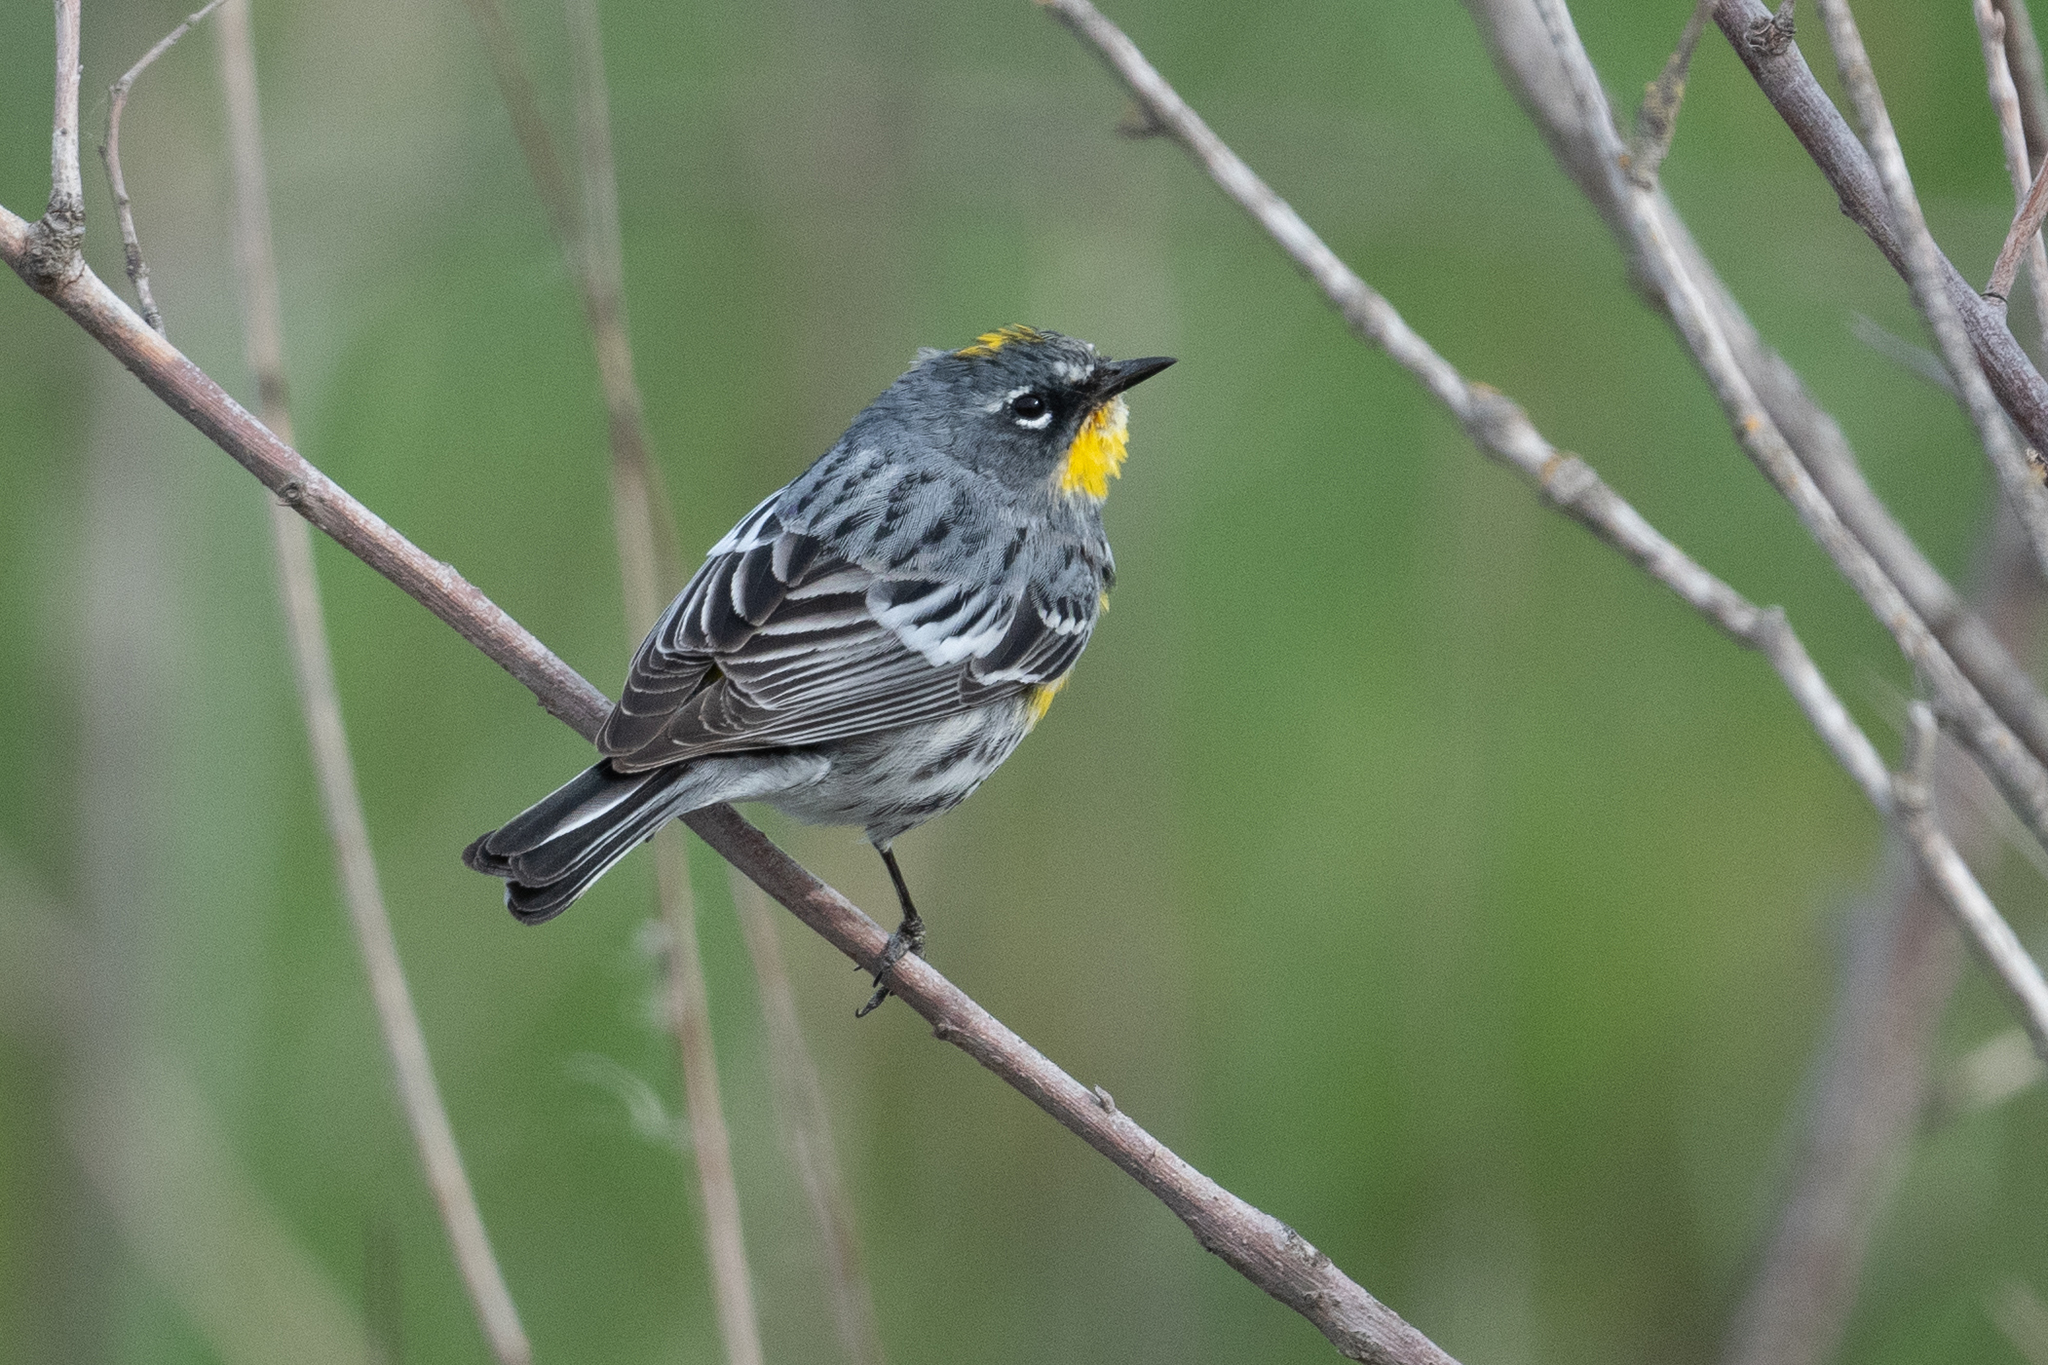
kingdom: Animalia
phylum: Chordata
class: Aves
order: Passeriformes
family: Parulidae
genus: Setophaga
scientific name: Setophaga coronata
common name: Myrtle warbler
